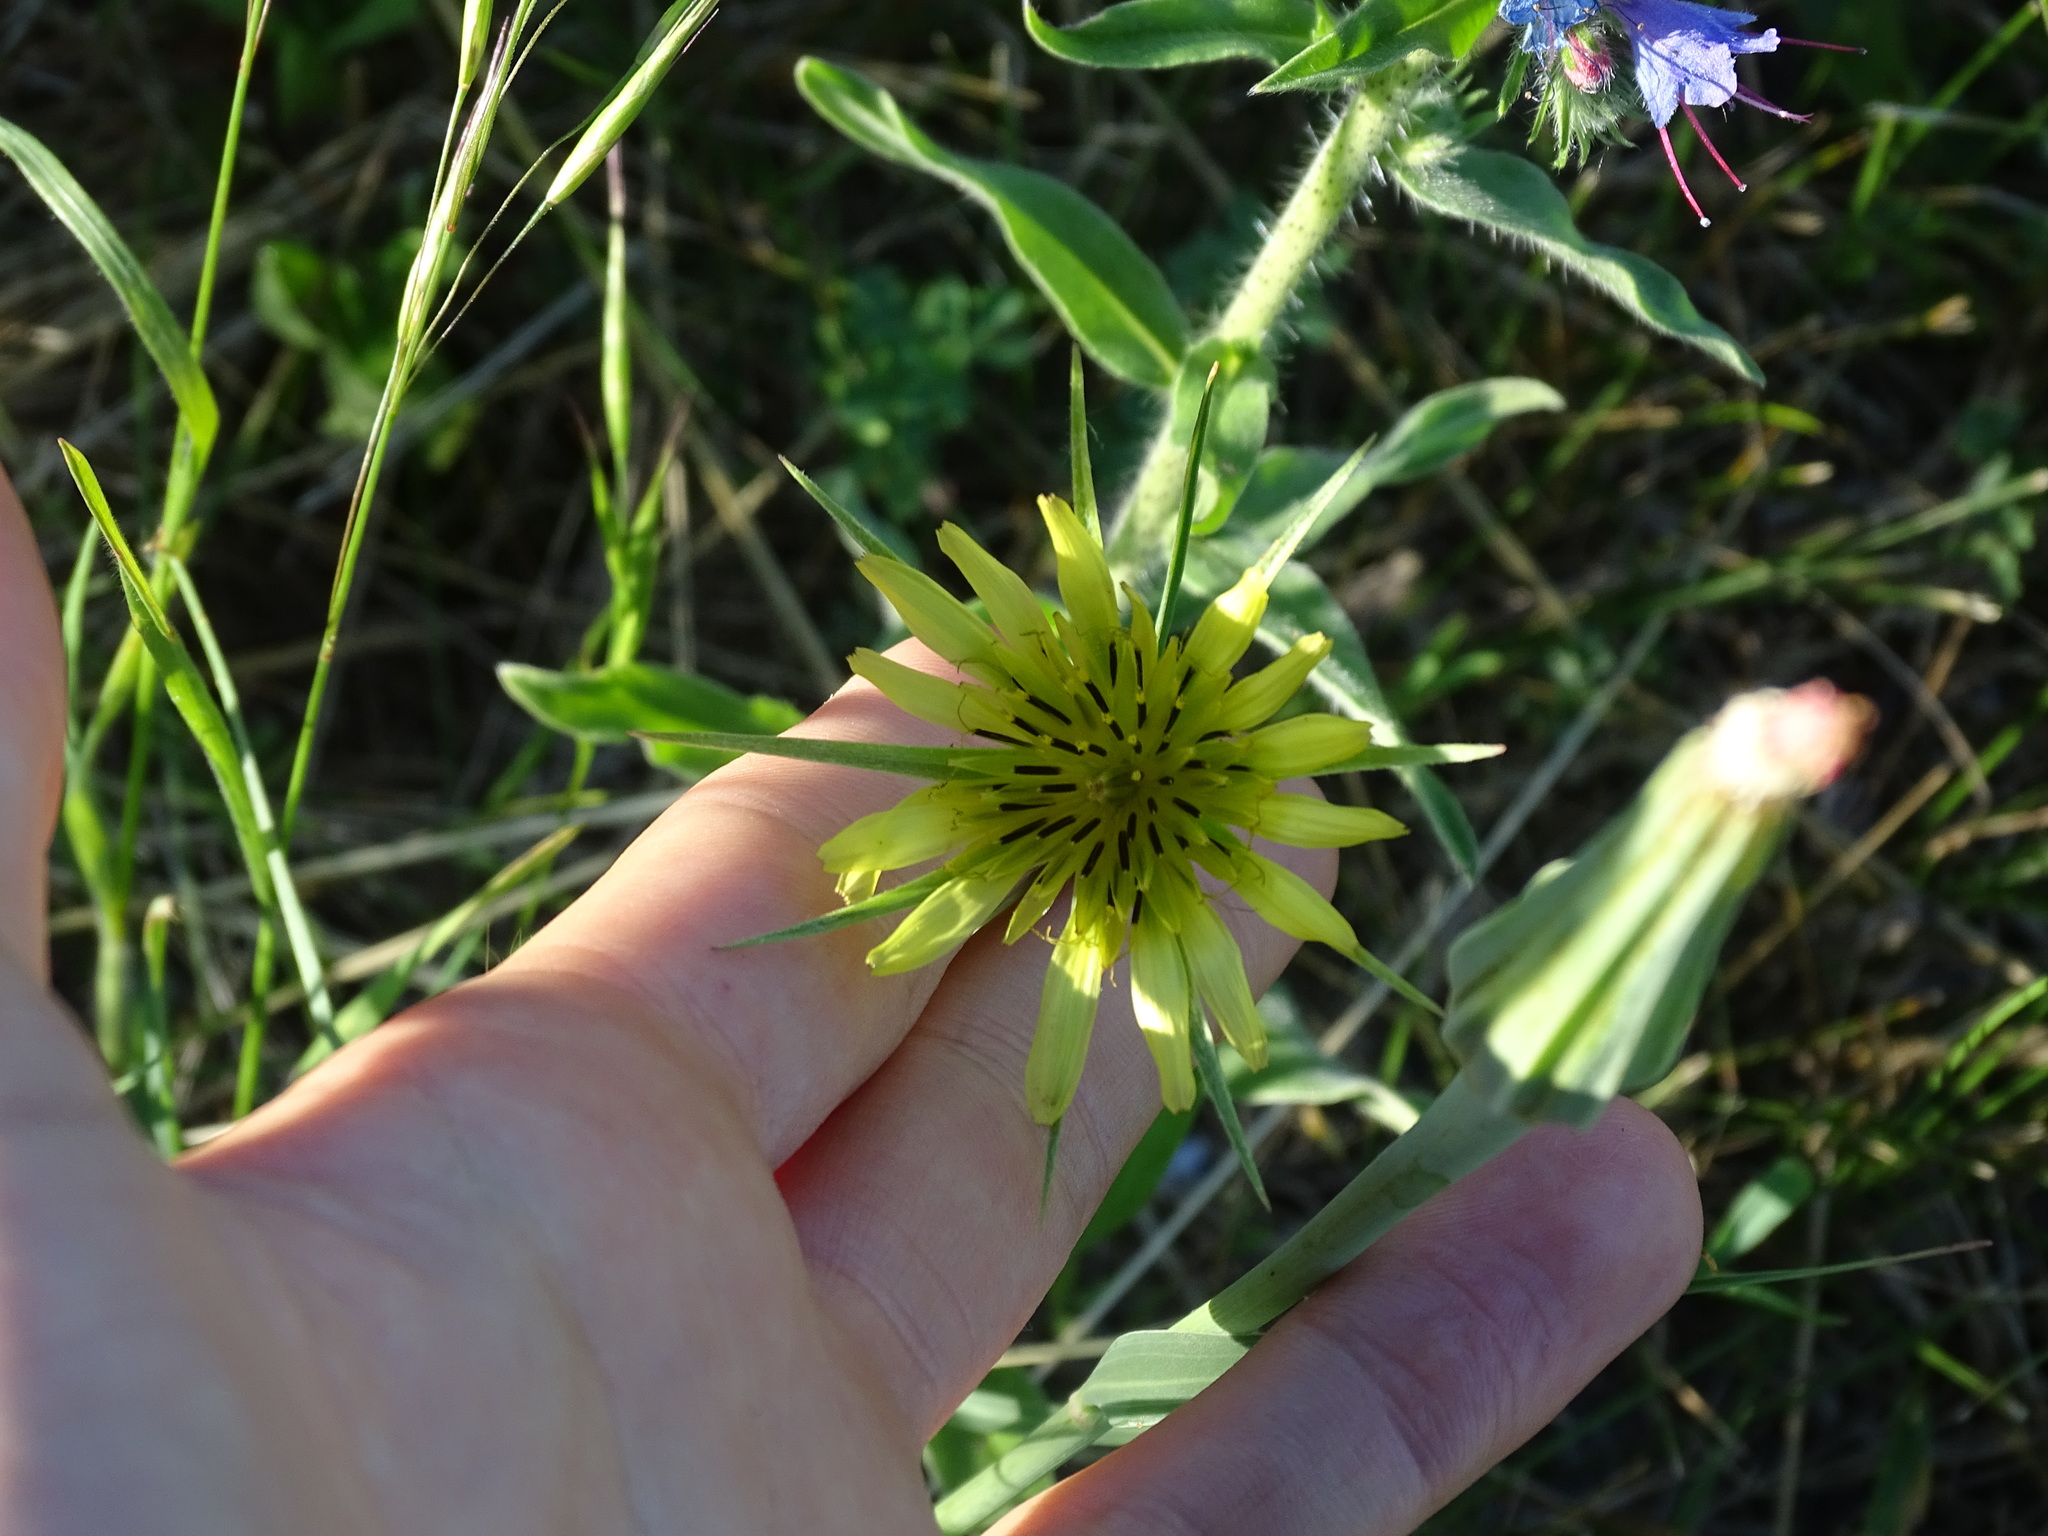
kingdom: Plantae
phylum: Tracheophyta
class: Magnoliopsida
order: Asterales
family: Asteraceae
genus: Tragopogon
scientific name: Tragopogon dubius
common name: Yellow salsify
